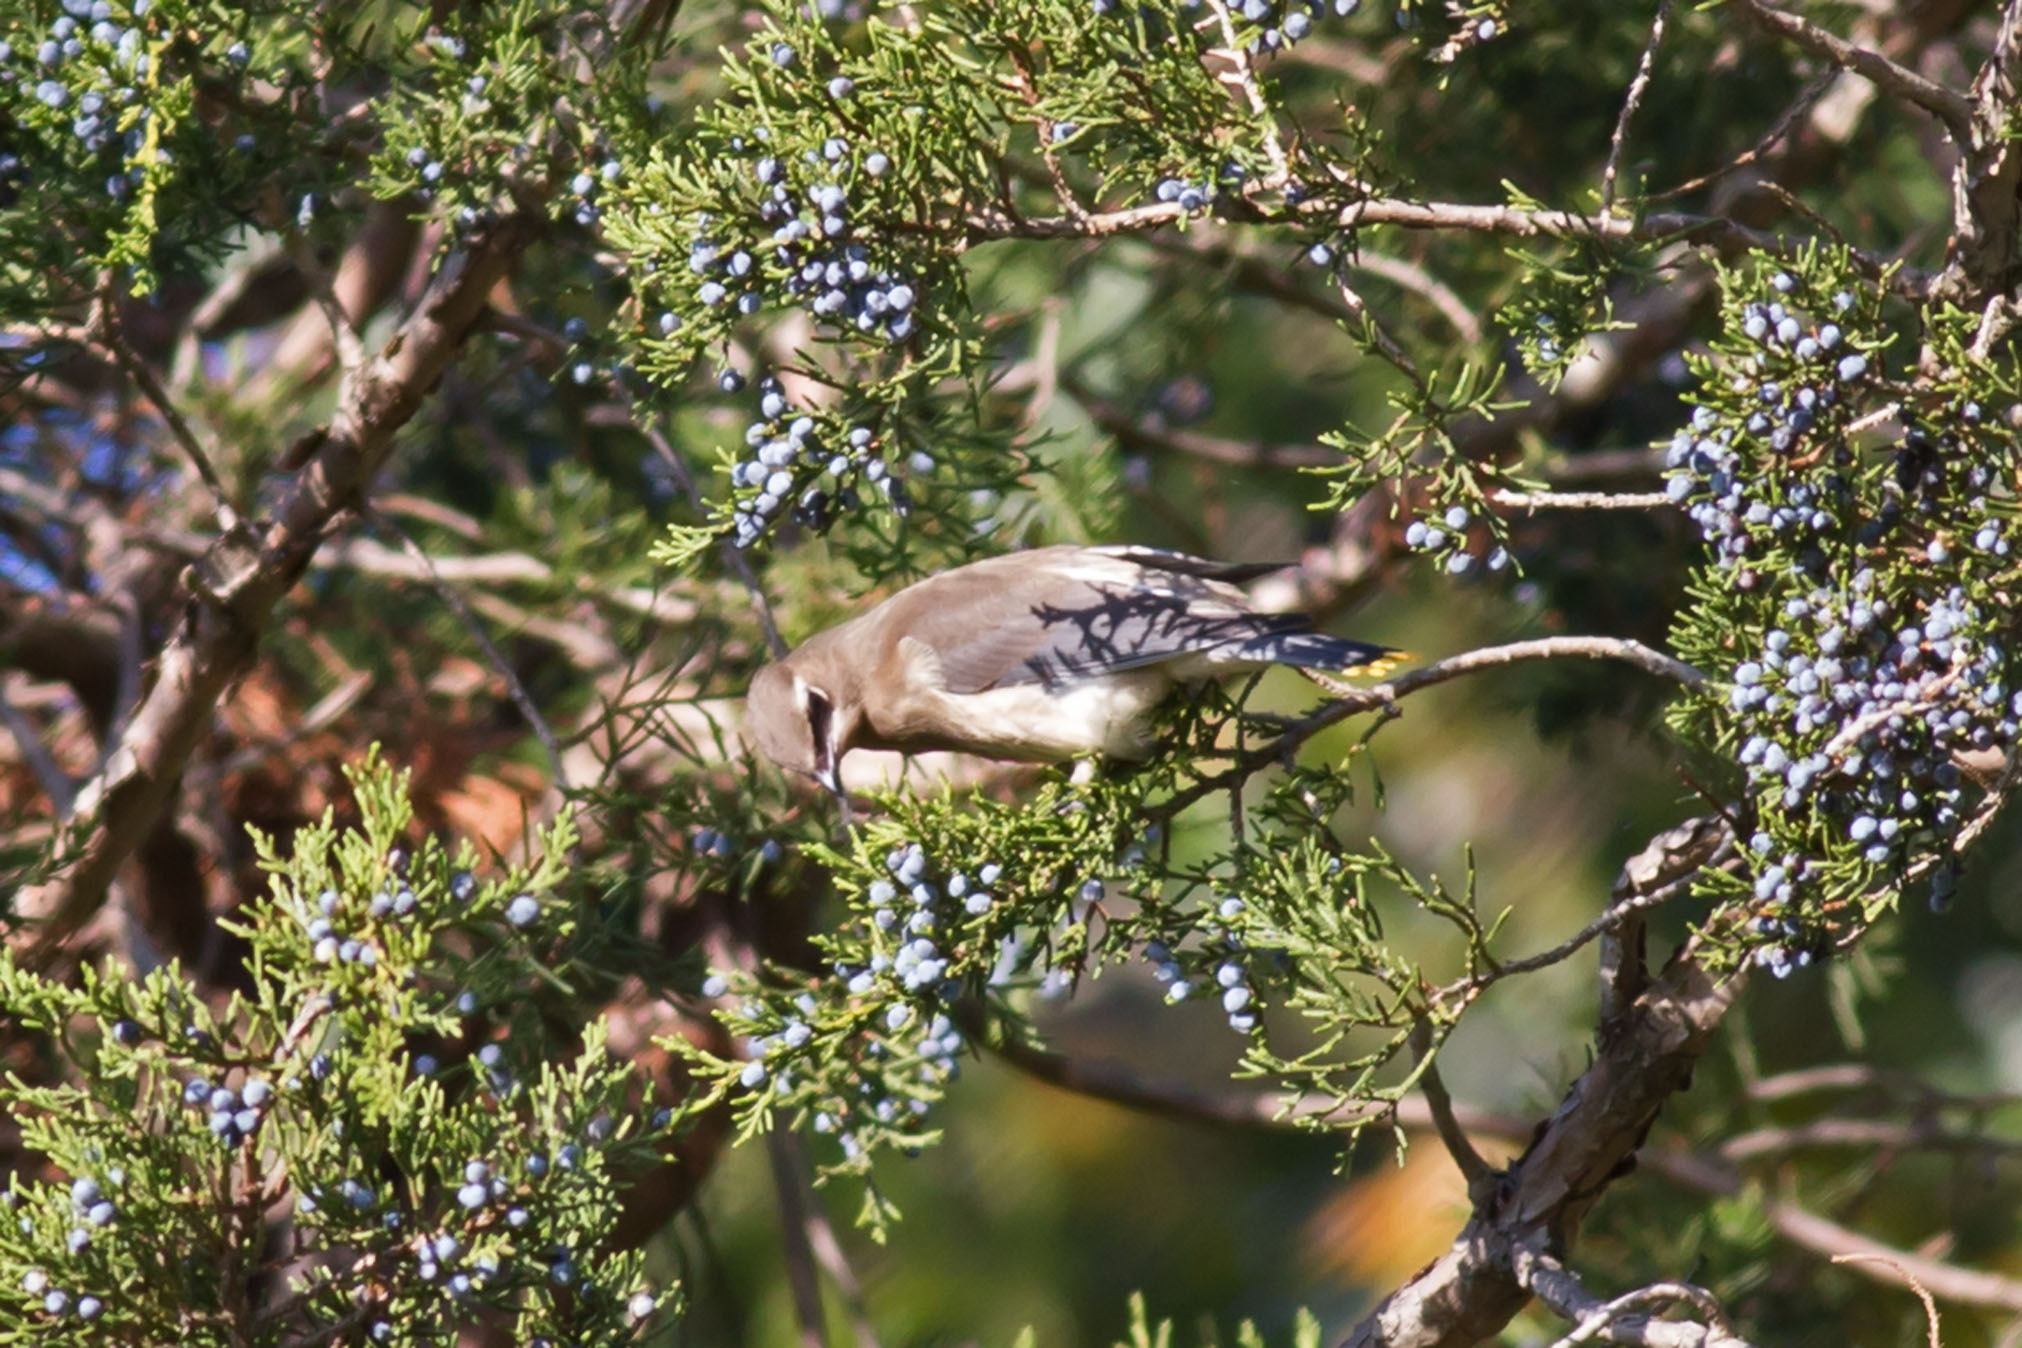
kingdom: Animalia
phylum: Chordata
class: Aves
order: Passeriformes
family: Bombycillidae
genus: Bombycilla
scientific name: Bombycilla cedrorum
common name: Cedar waxwing
